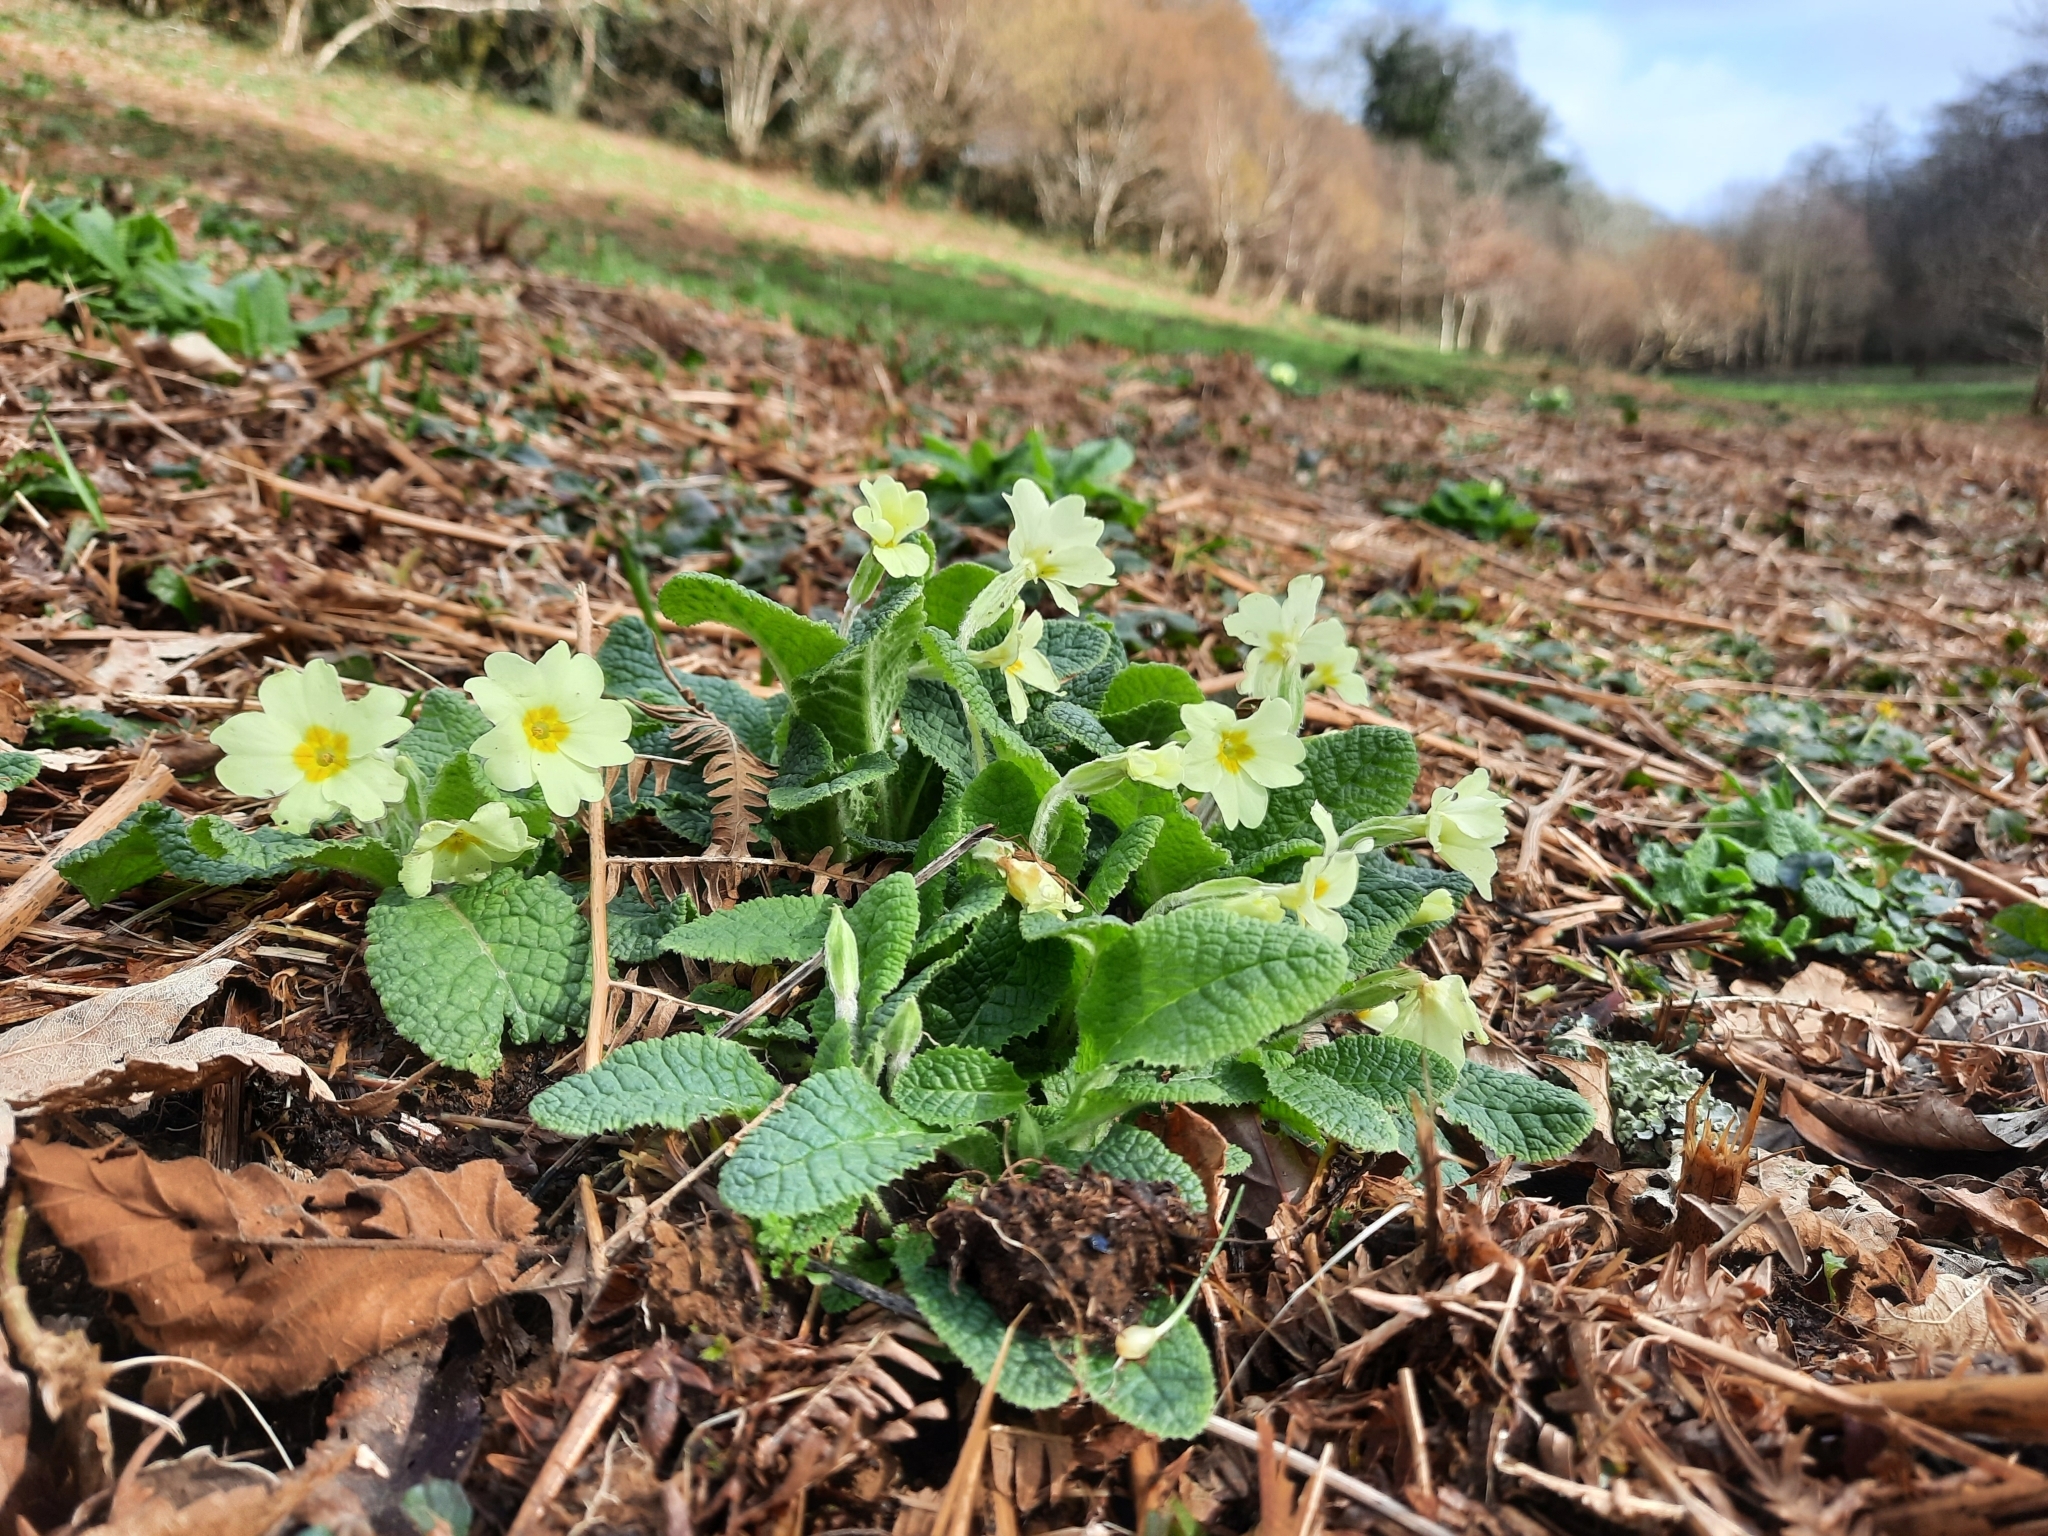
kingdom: Plantae
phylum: Tracheophyta
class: Magnoliopsida
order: Ericales
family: Primulaceae
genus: Primula
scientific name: Primula vulgaris
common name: Primrose
